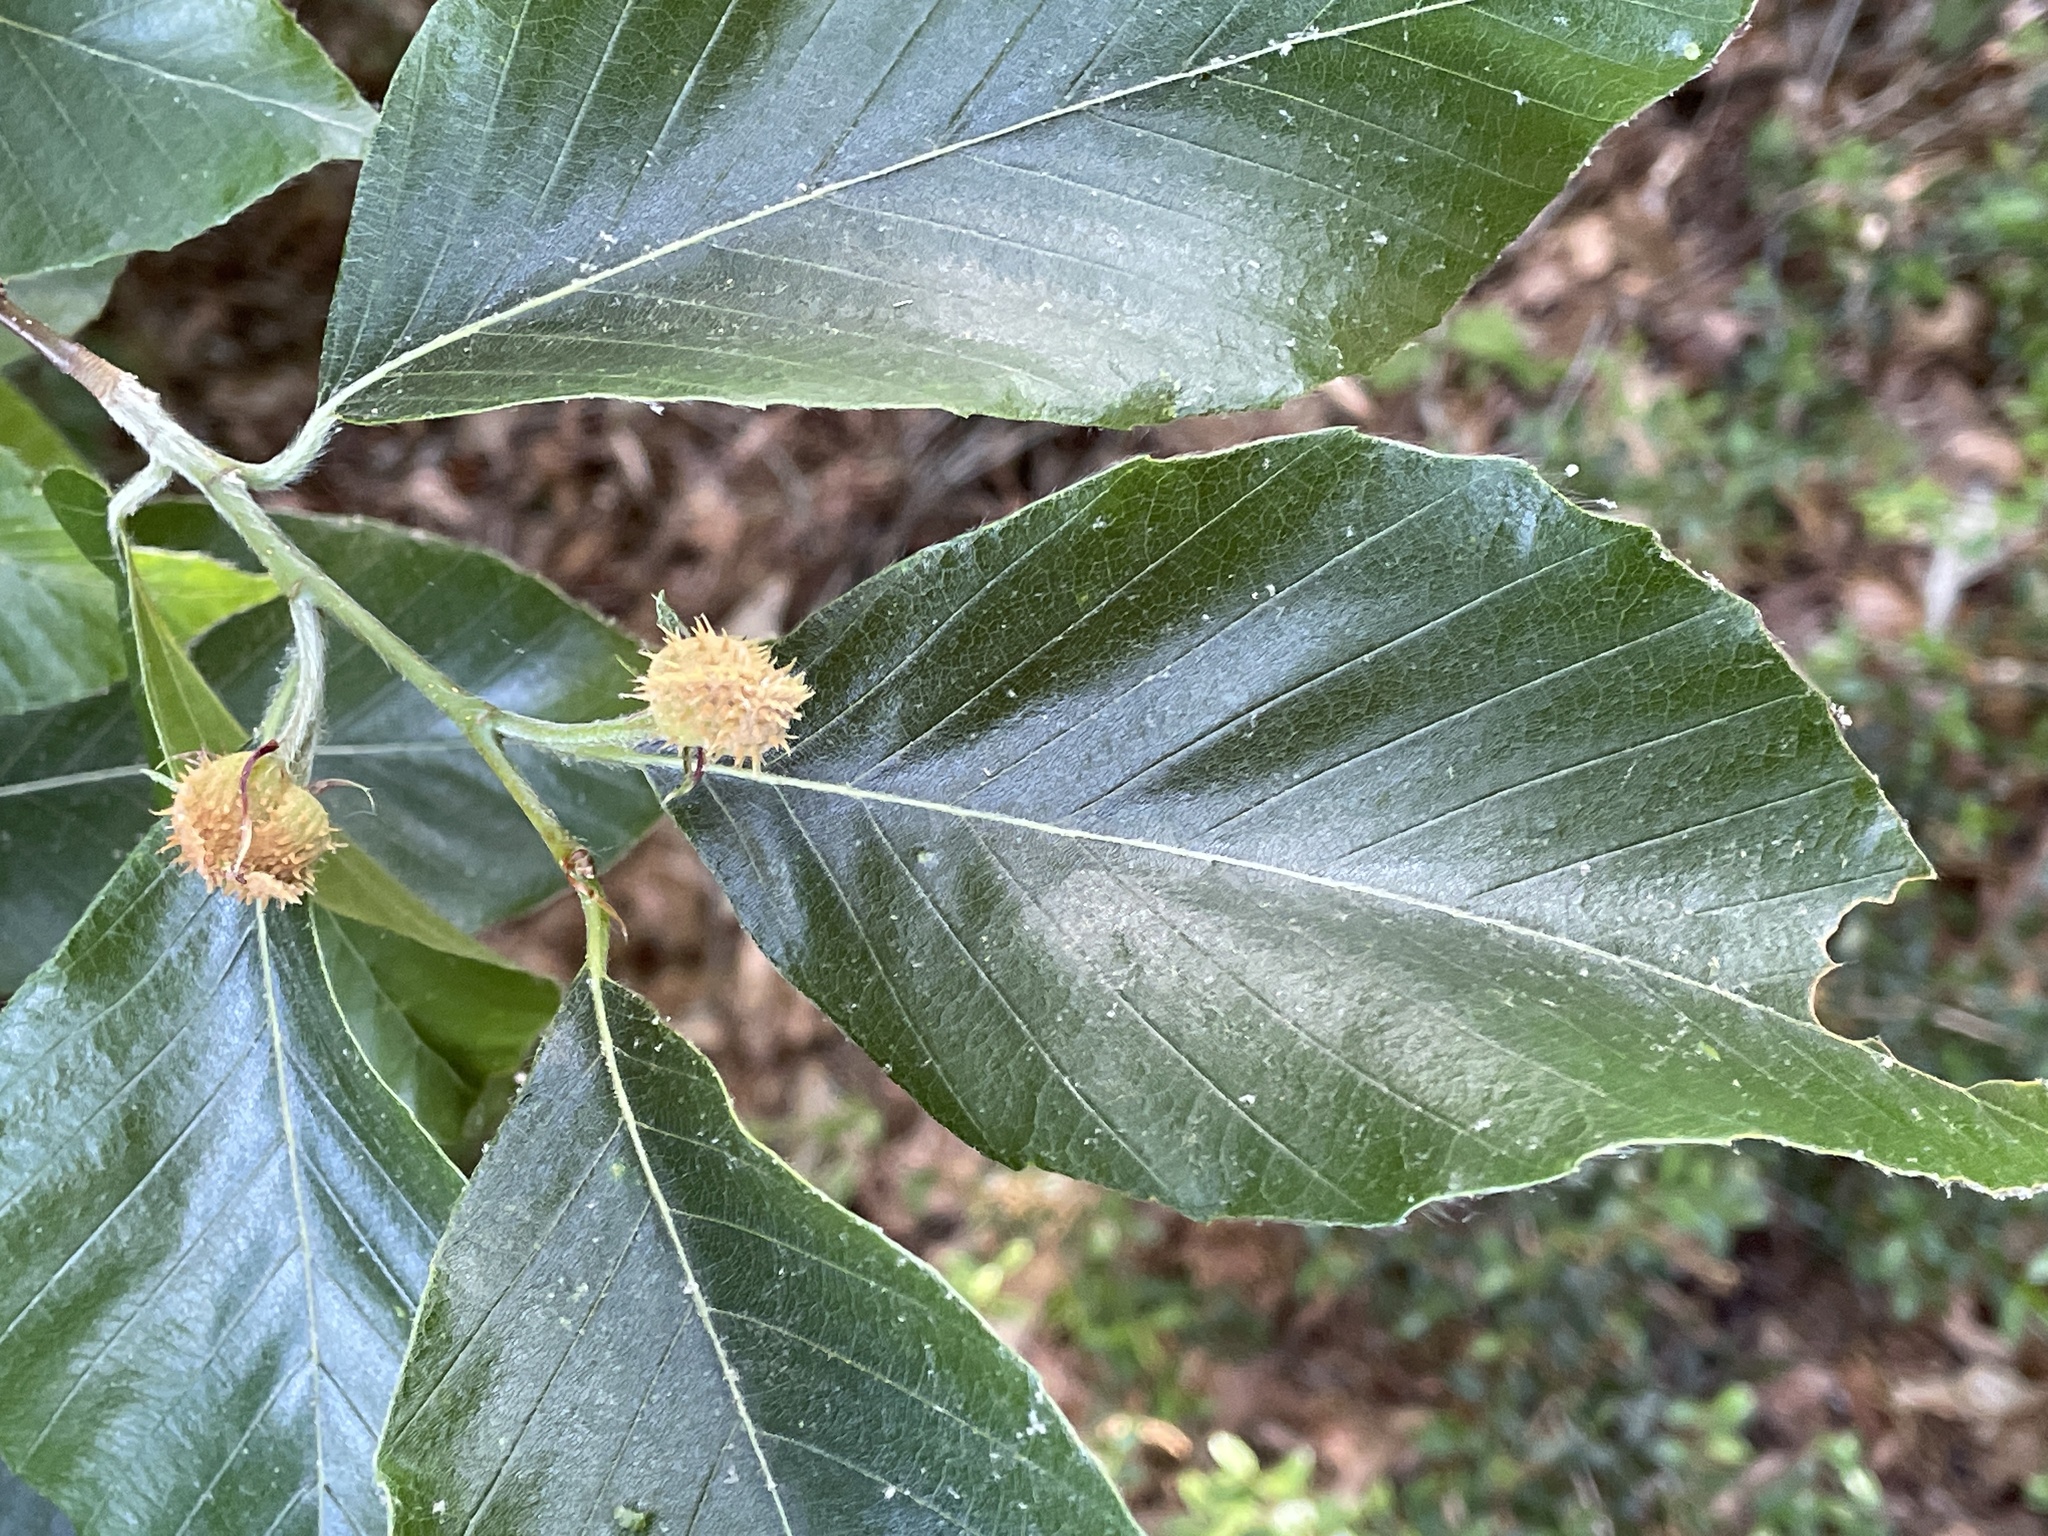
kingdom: Plantae
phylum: Tracheophyta
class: Magnoliopsida
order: Fagales
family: Fagaceae
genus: Fagus
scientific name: Fagus grandifolia
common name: American beech
